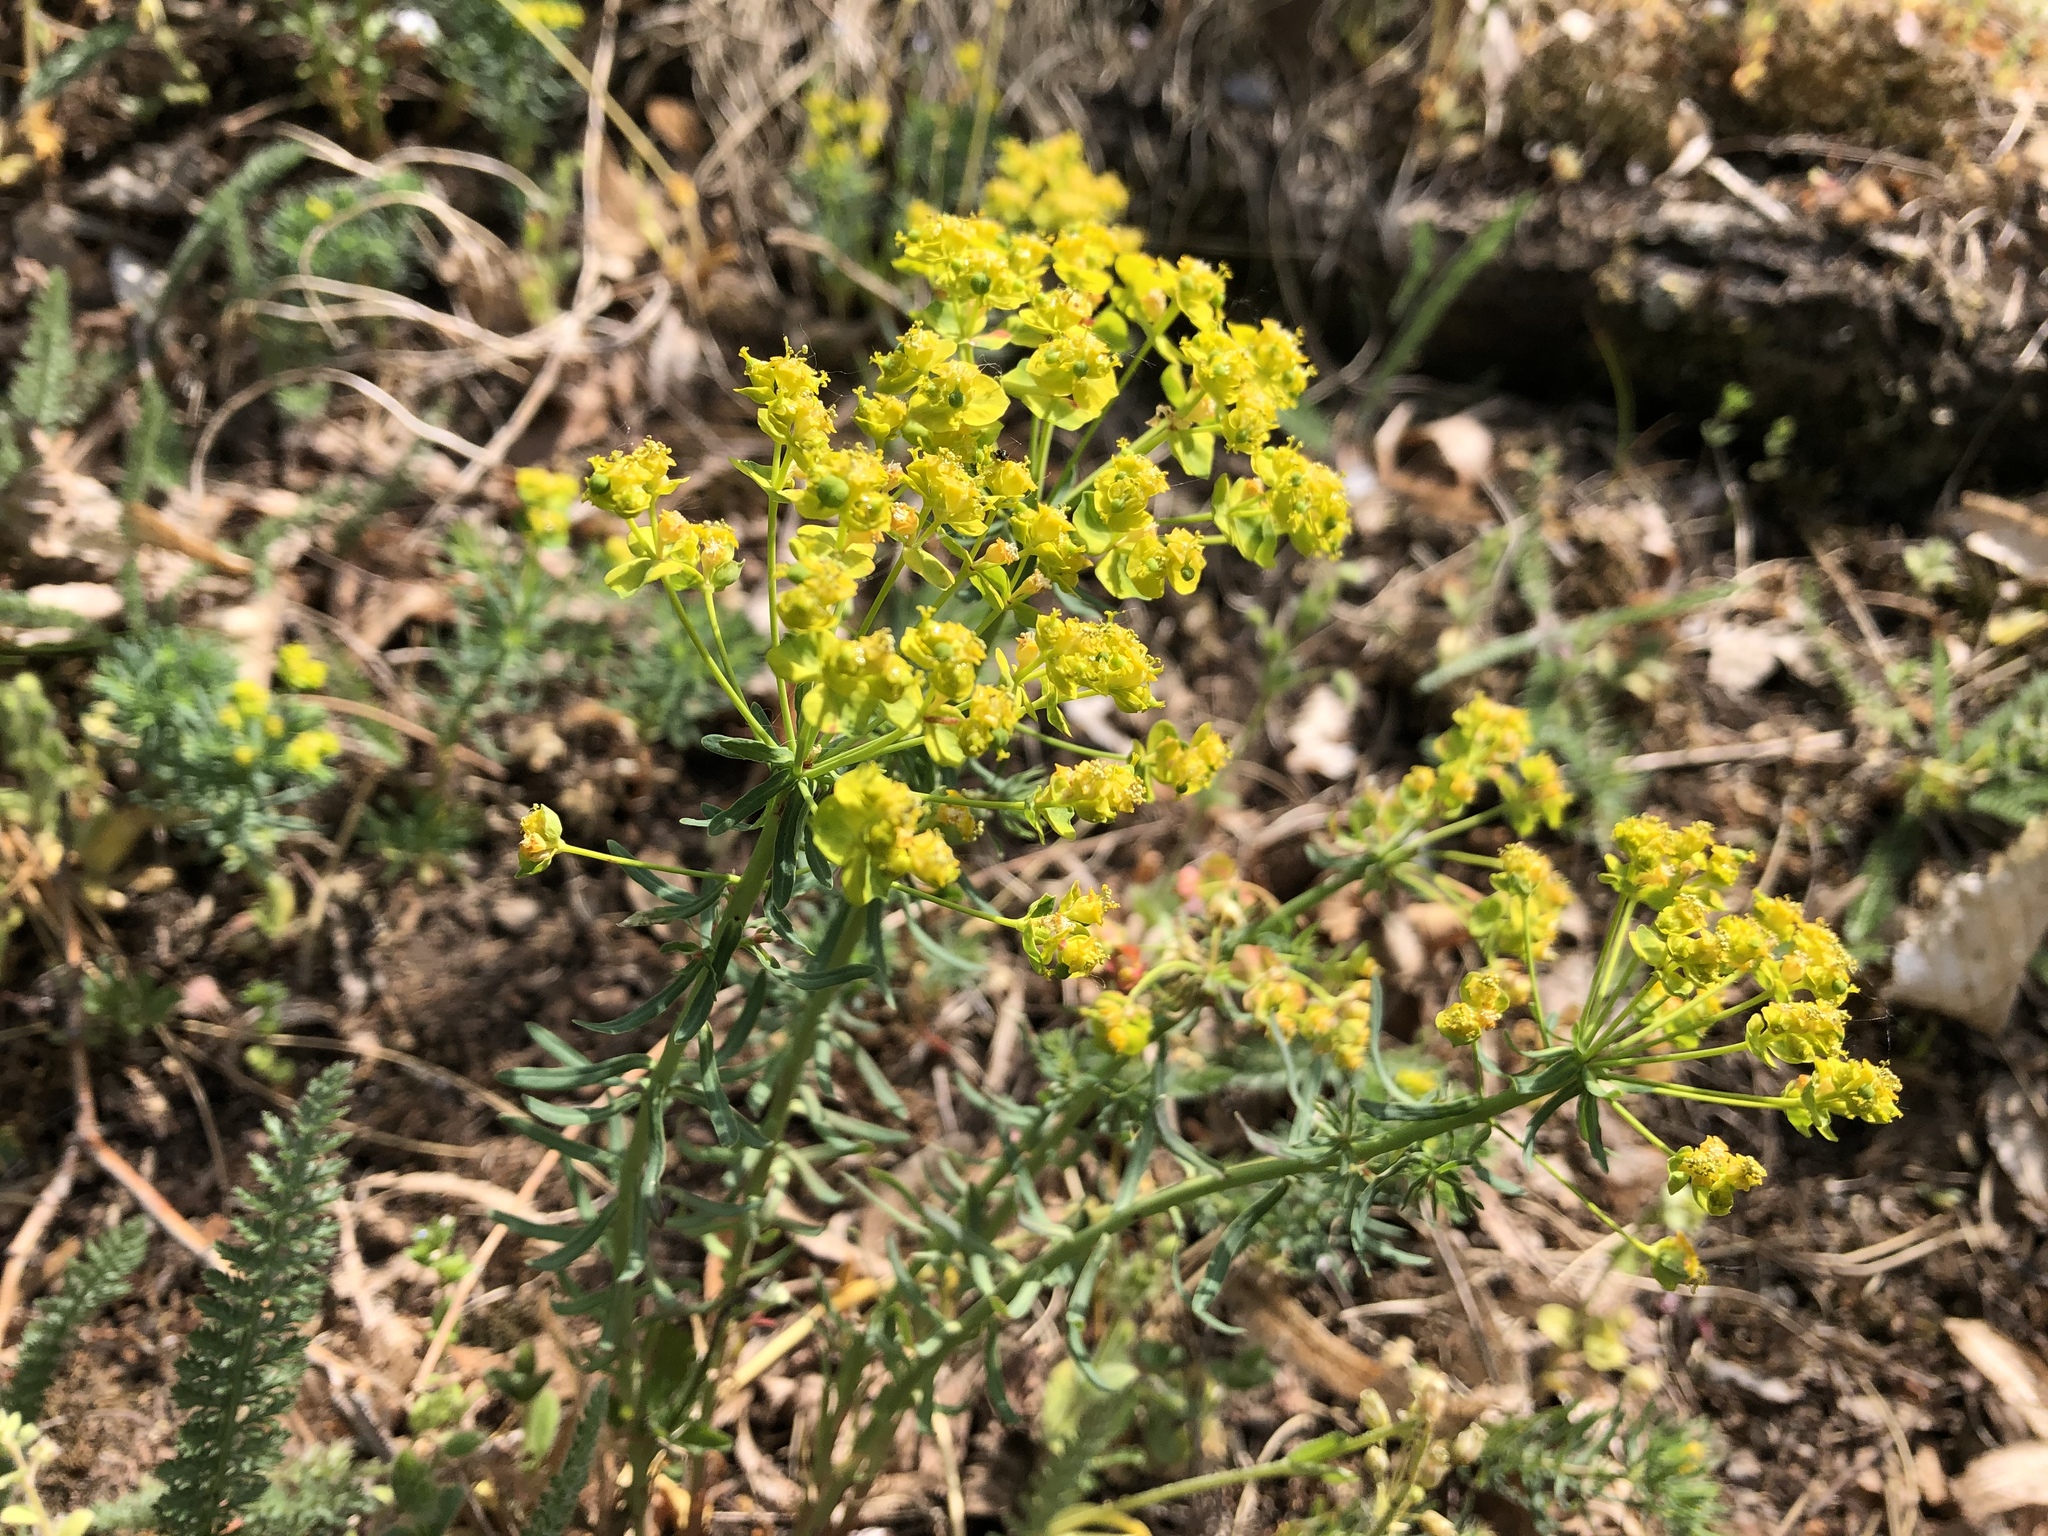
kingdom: Plantae
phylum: Tracheophyta
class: Magnoliopsida
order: Malpighiales
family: Euphorbiaceae
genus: Euphorbia
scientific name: Euphorbia cyparissias
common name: Cypress spurge
